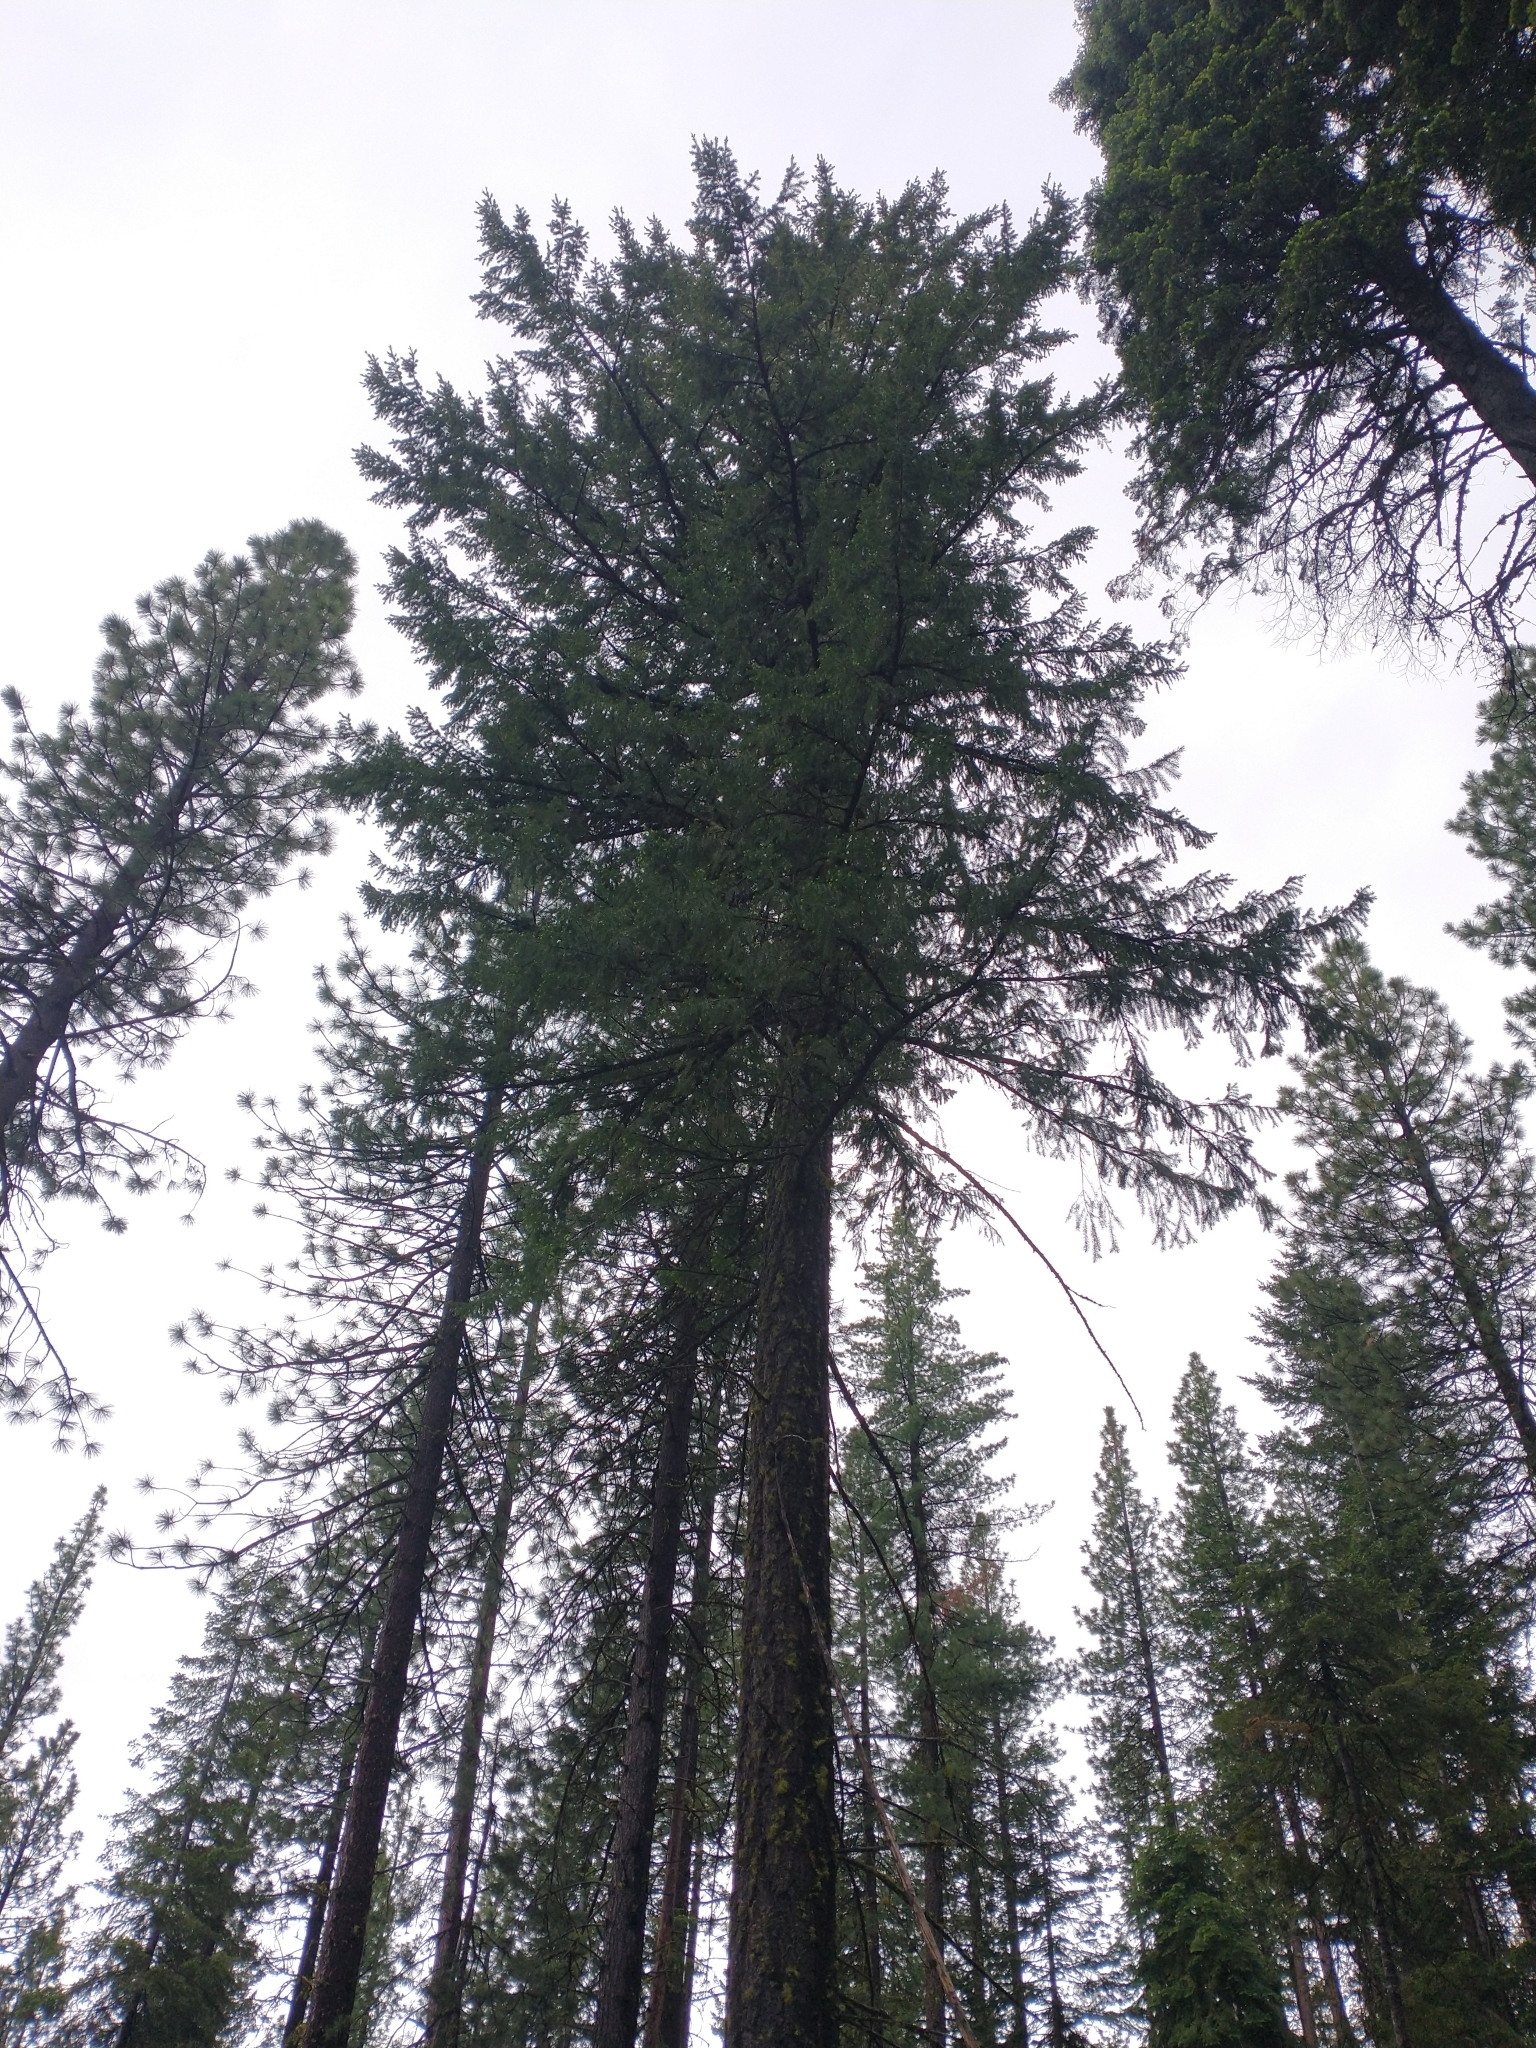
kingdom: Plantae
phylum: Tracheophyta
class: Pinopsida
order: Pinales
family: Pinaceae
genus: Pseudotsuga
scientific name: Pseudotsuga menziesii
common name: Douglas fir
